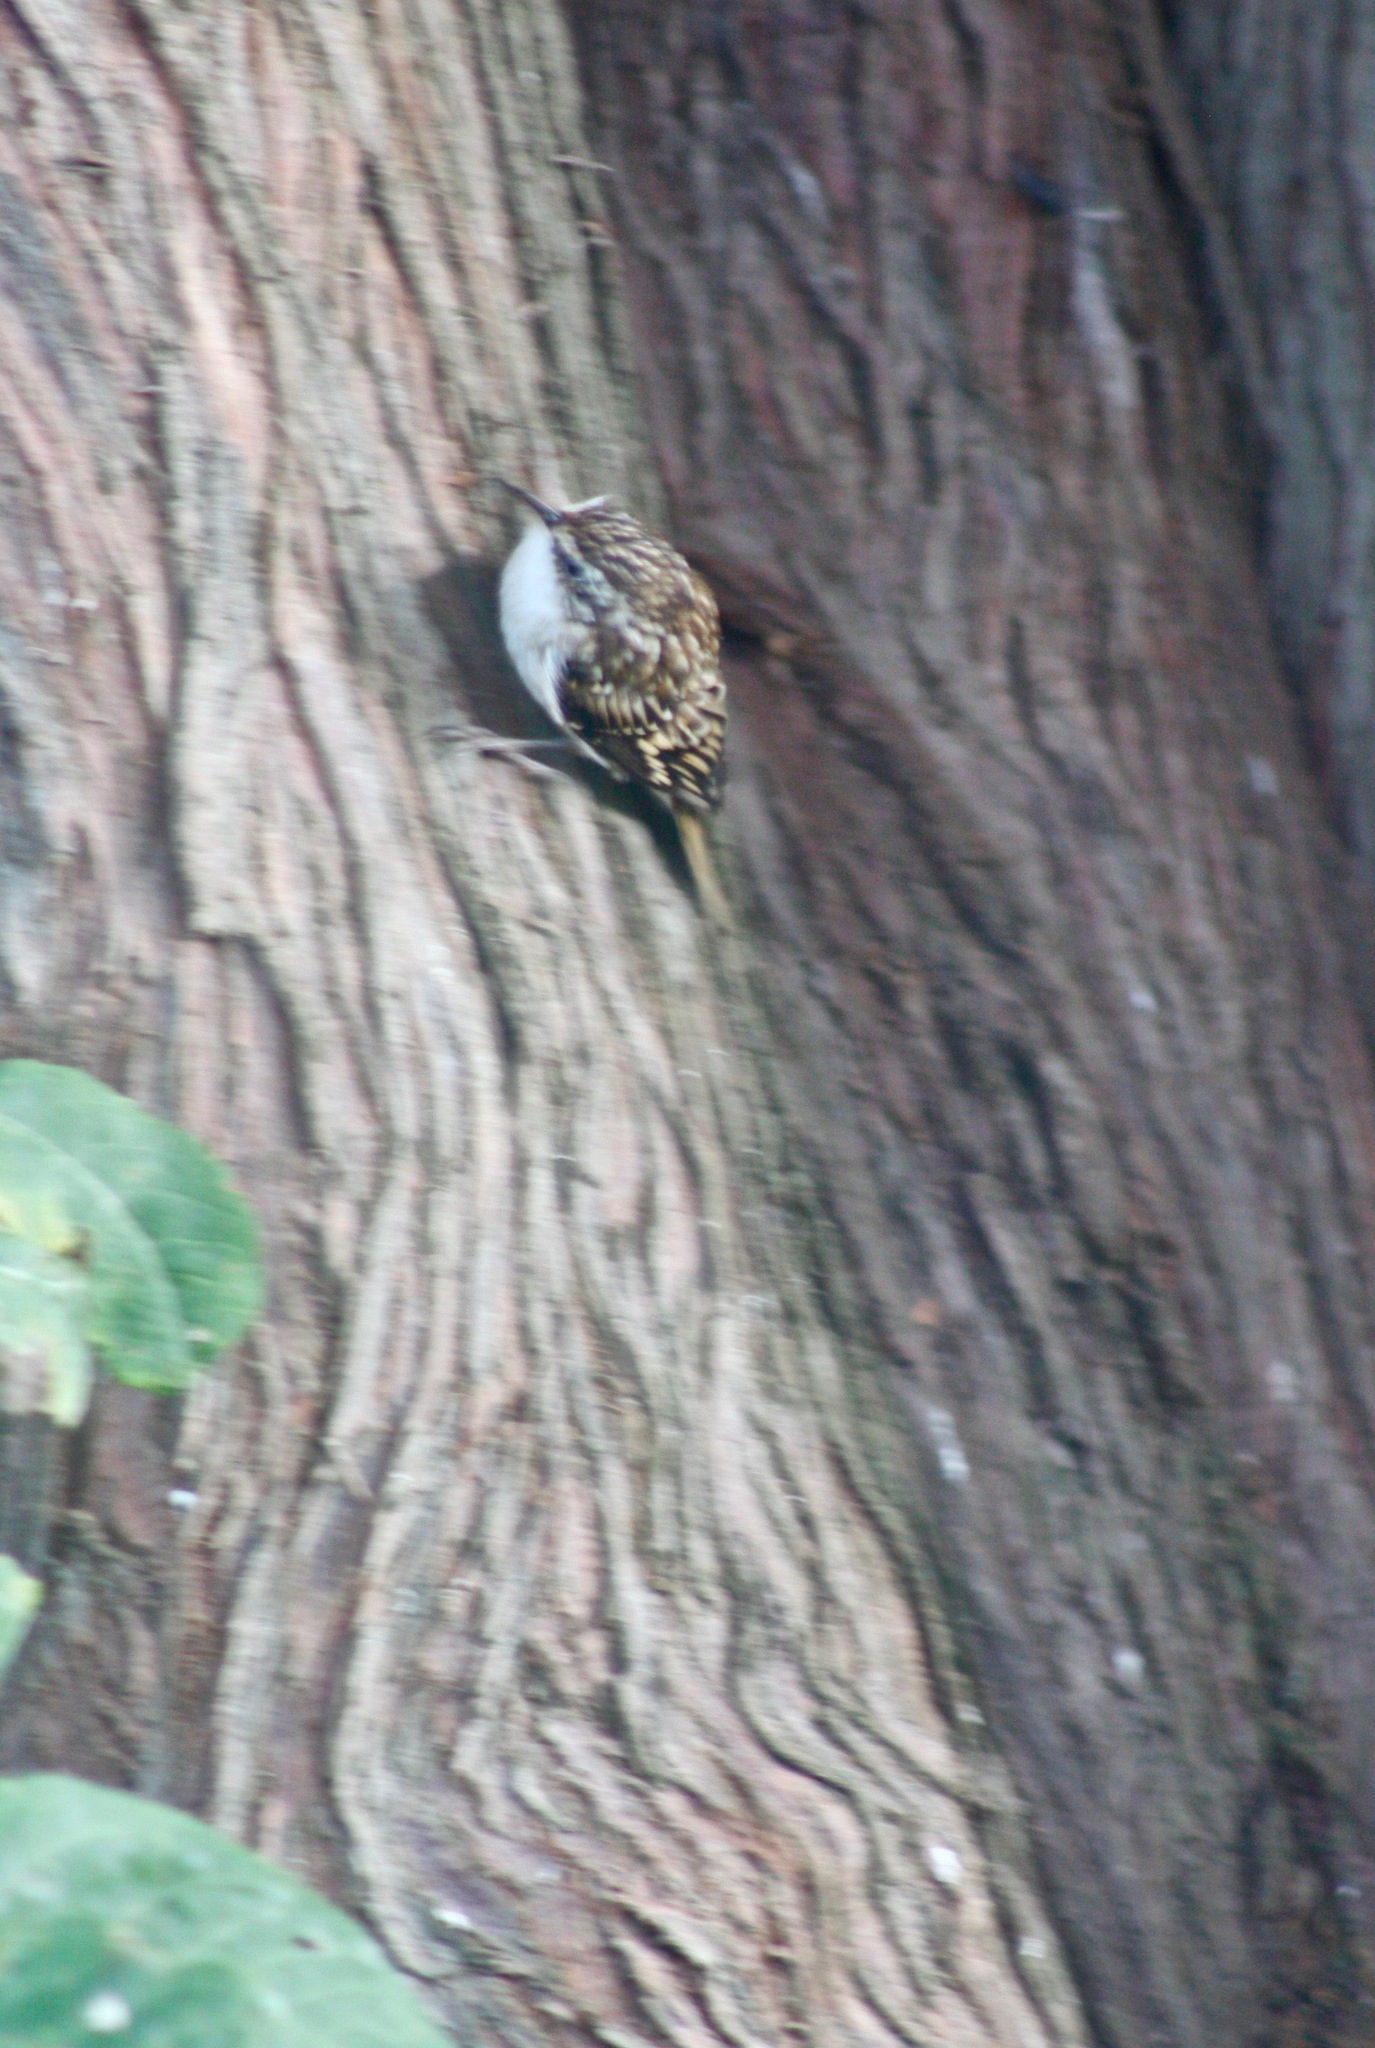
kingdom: Animalia
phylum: Chordata
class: Aves
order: Passeriformes
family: Certhiidae
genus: Certhia
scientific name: Certhia americana
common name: Brown creeper
